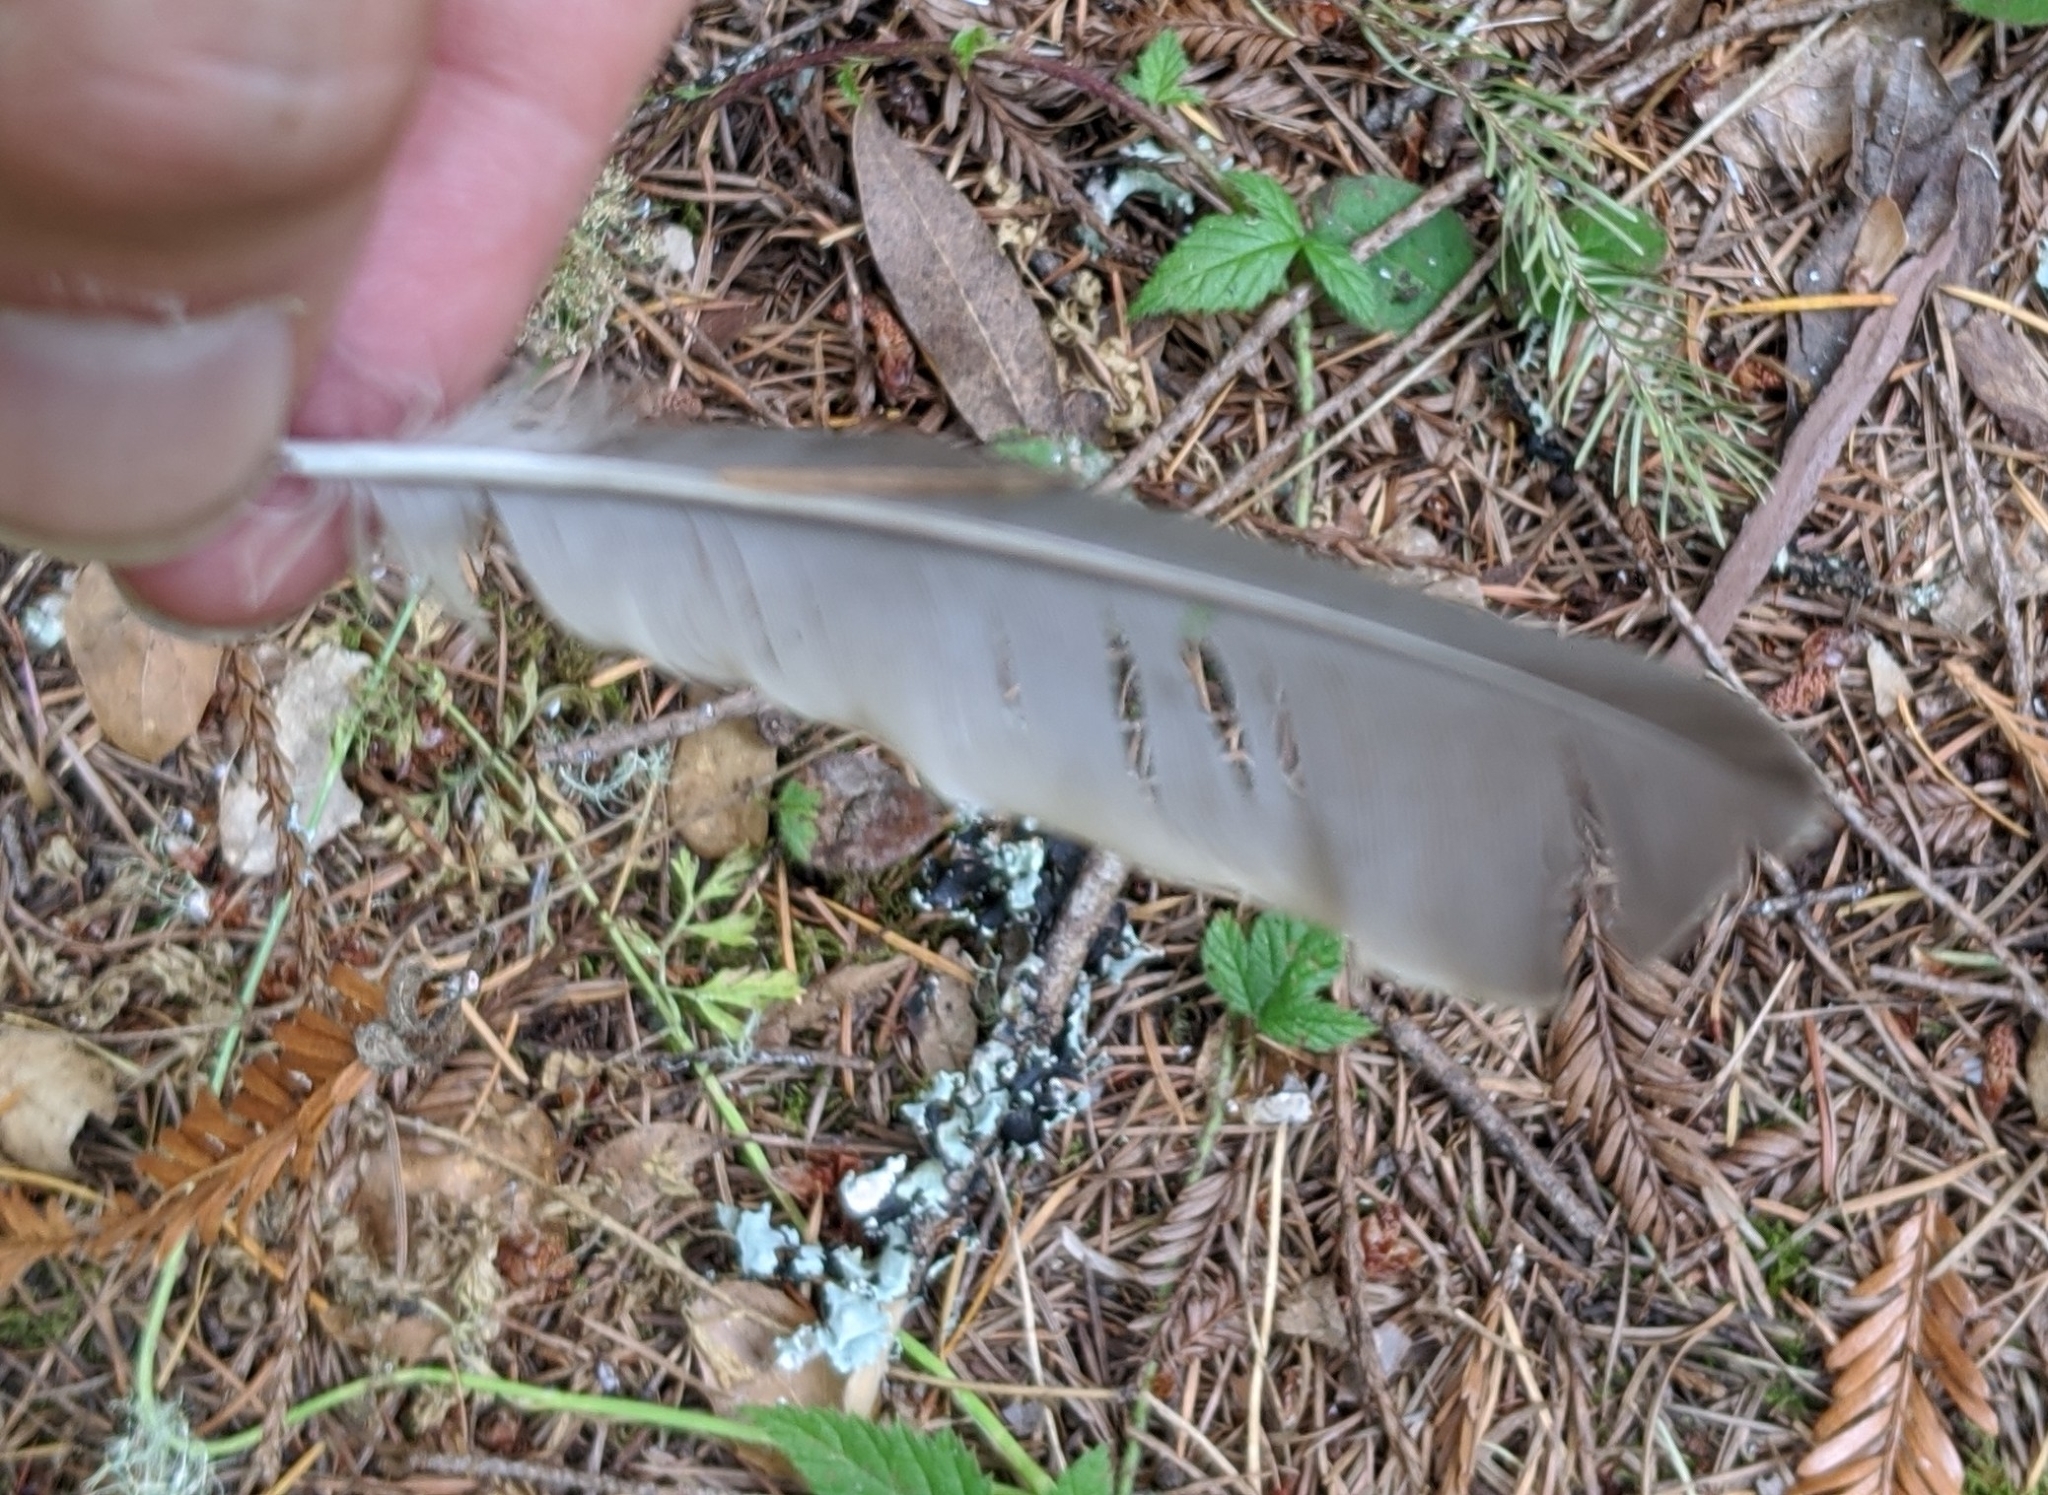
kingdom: Animalia
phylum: Chordata
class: Aves
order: Passeriformes
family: Turdidae
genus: Turdus
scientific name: Turdus migratorius
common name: American robin
